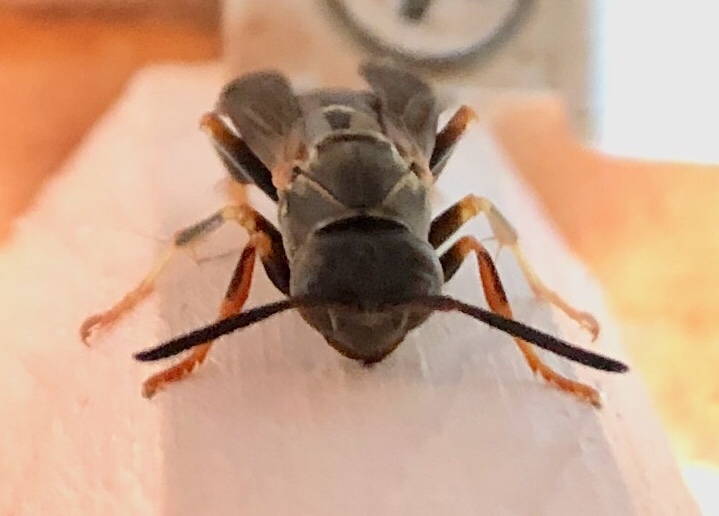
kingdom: Animalia
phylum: Arthropoda
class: Insecta
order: Hymenoptera
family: Eumenidae
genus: Polistes
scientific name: Polistes fuscatus
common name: Dark paper wasp
